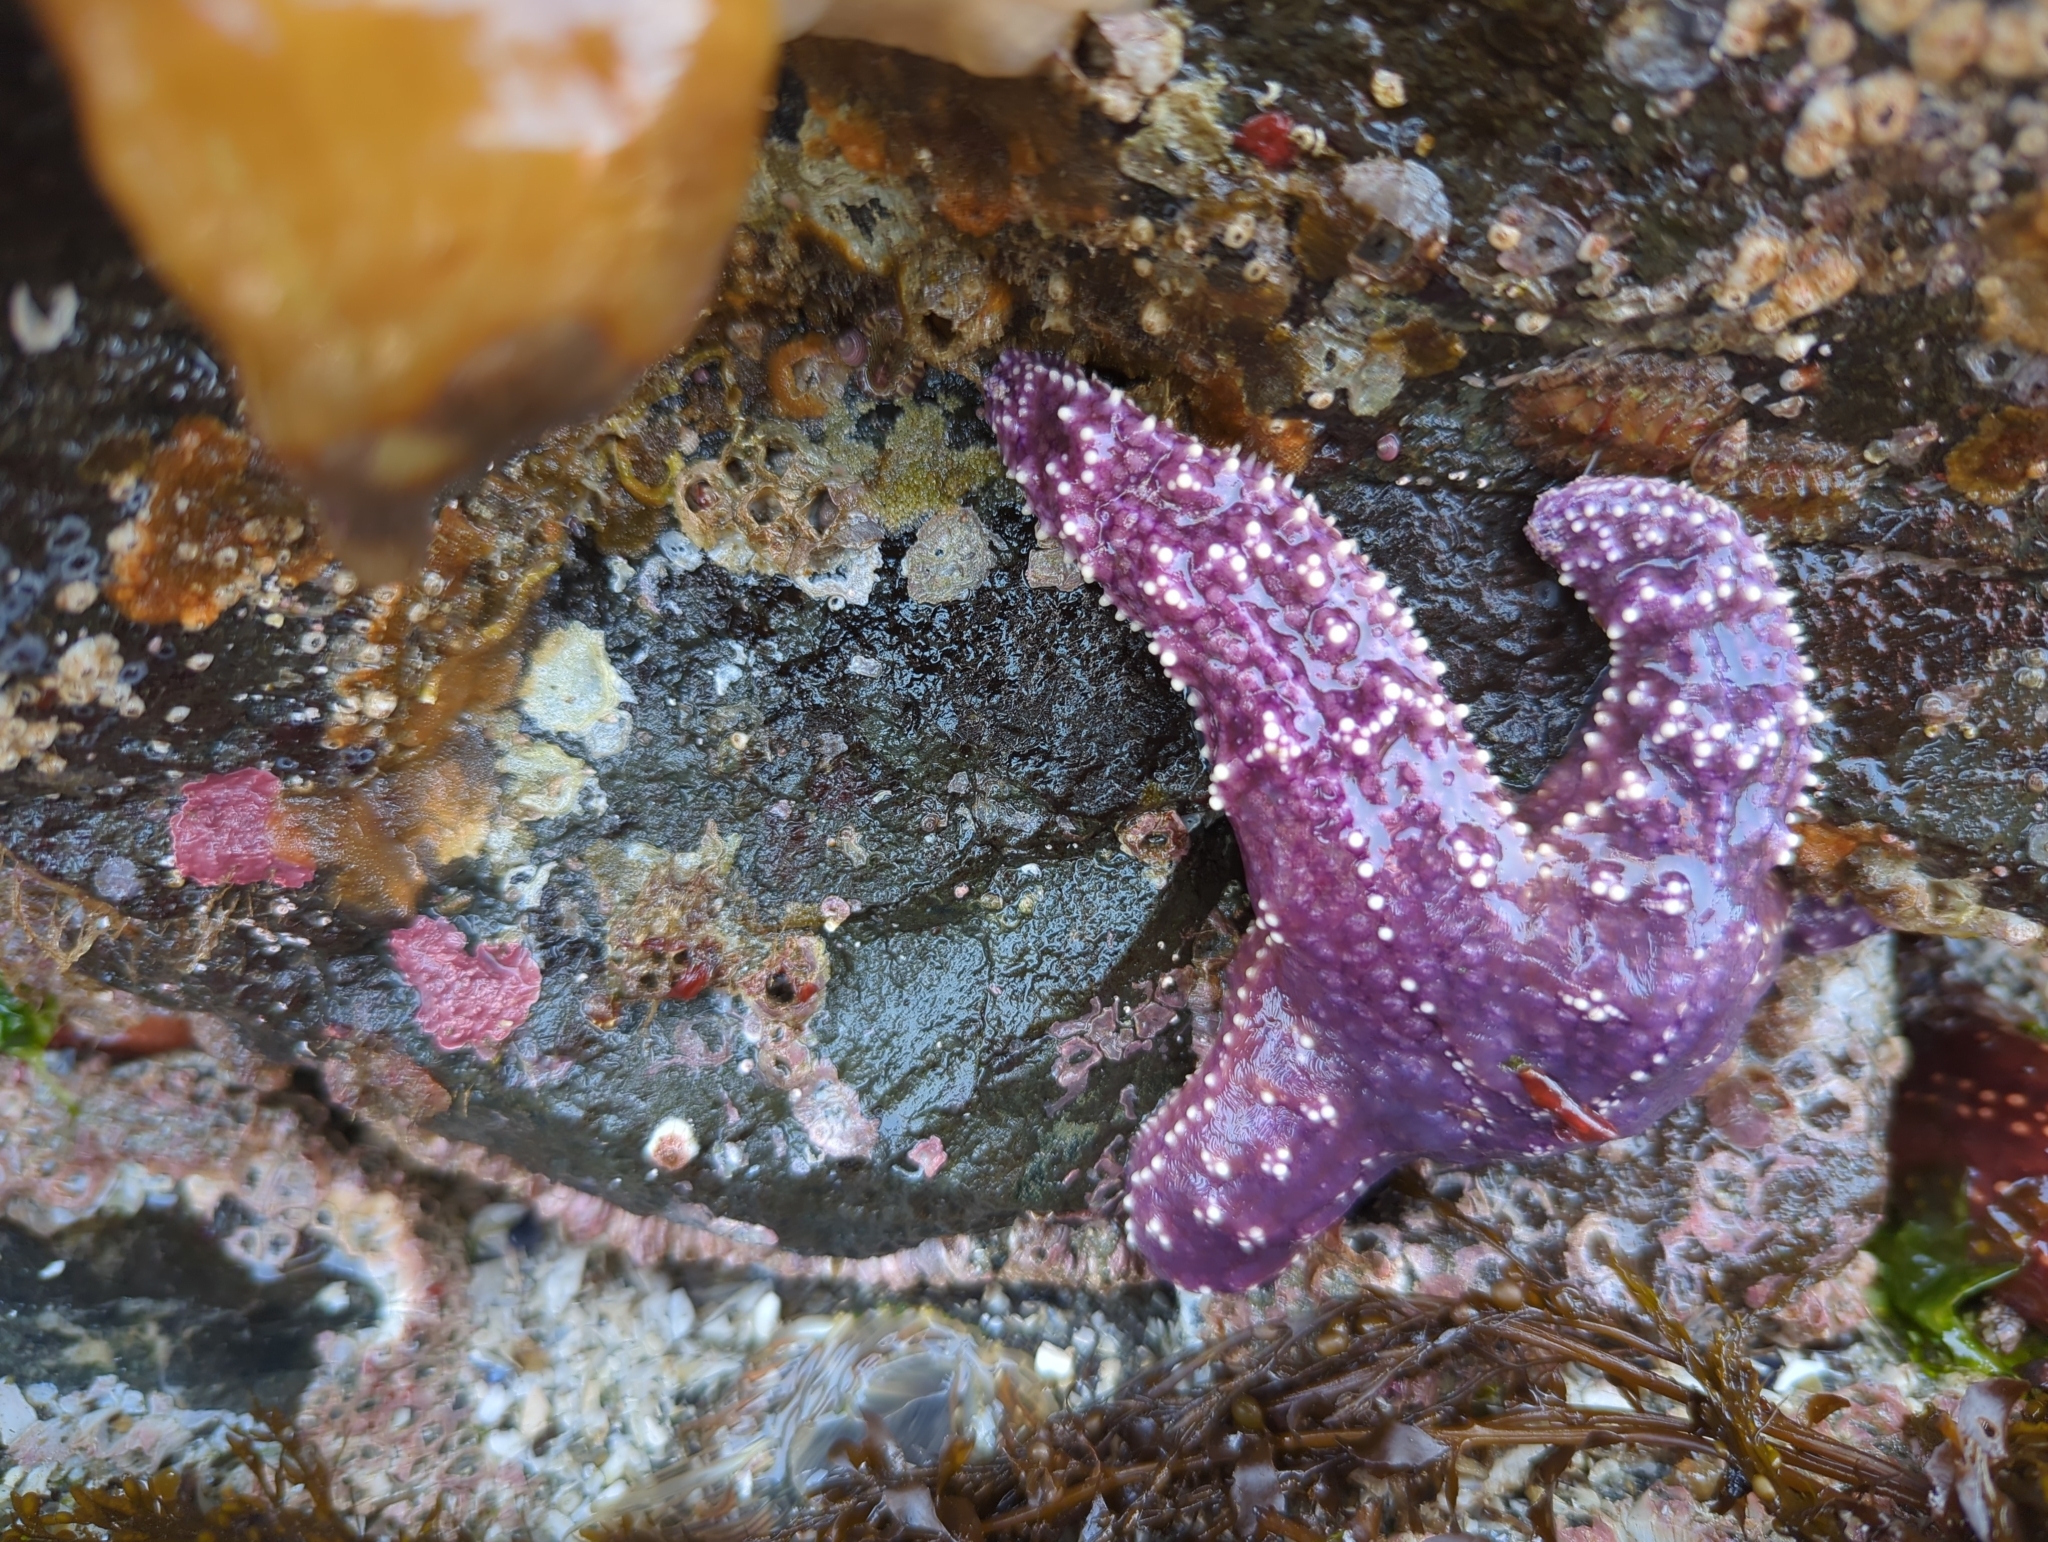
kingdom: Animalia
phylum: Echinodermata
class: Asteroidea
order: Forcipulatida
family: Asteriidae
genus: Pisaster
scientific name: Pisaster ochraceus
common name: Ochre stars
